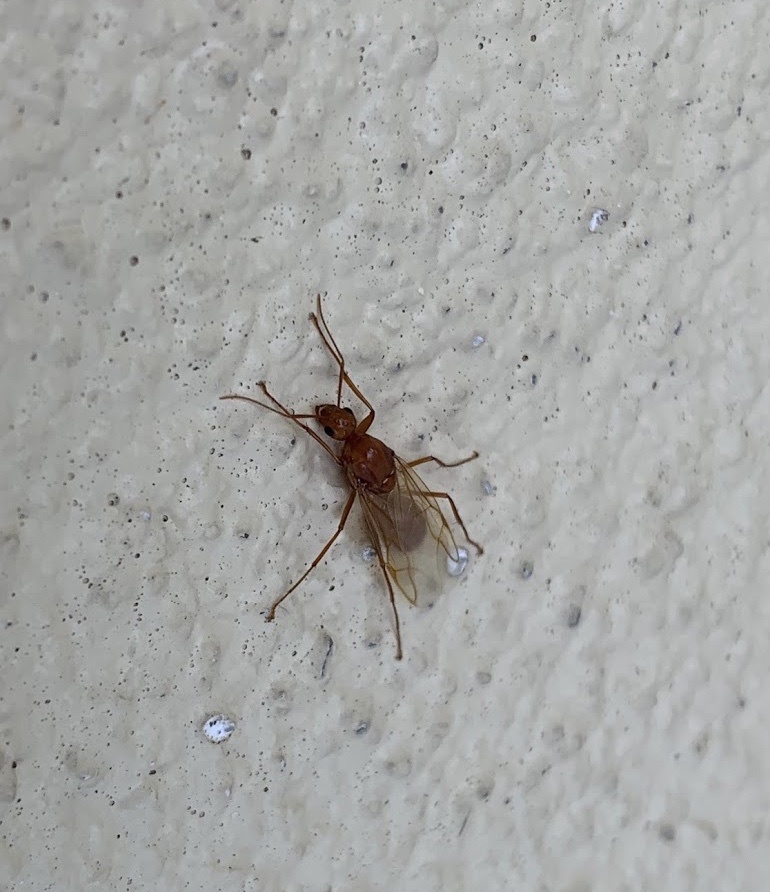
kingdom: Animalia
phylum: Arthropoda
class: Insecta
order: Hymenoptera
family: Formicidae
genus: Camponotus
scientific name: Camponotus castaneus
